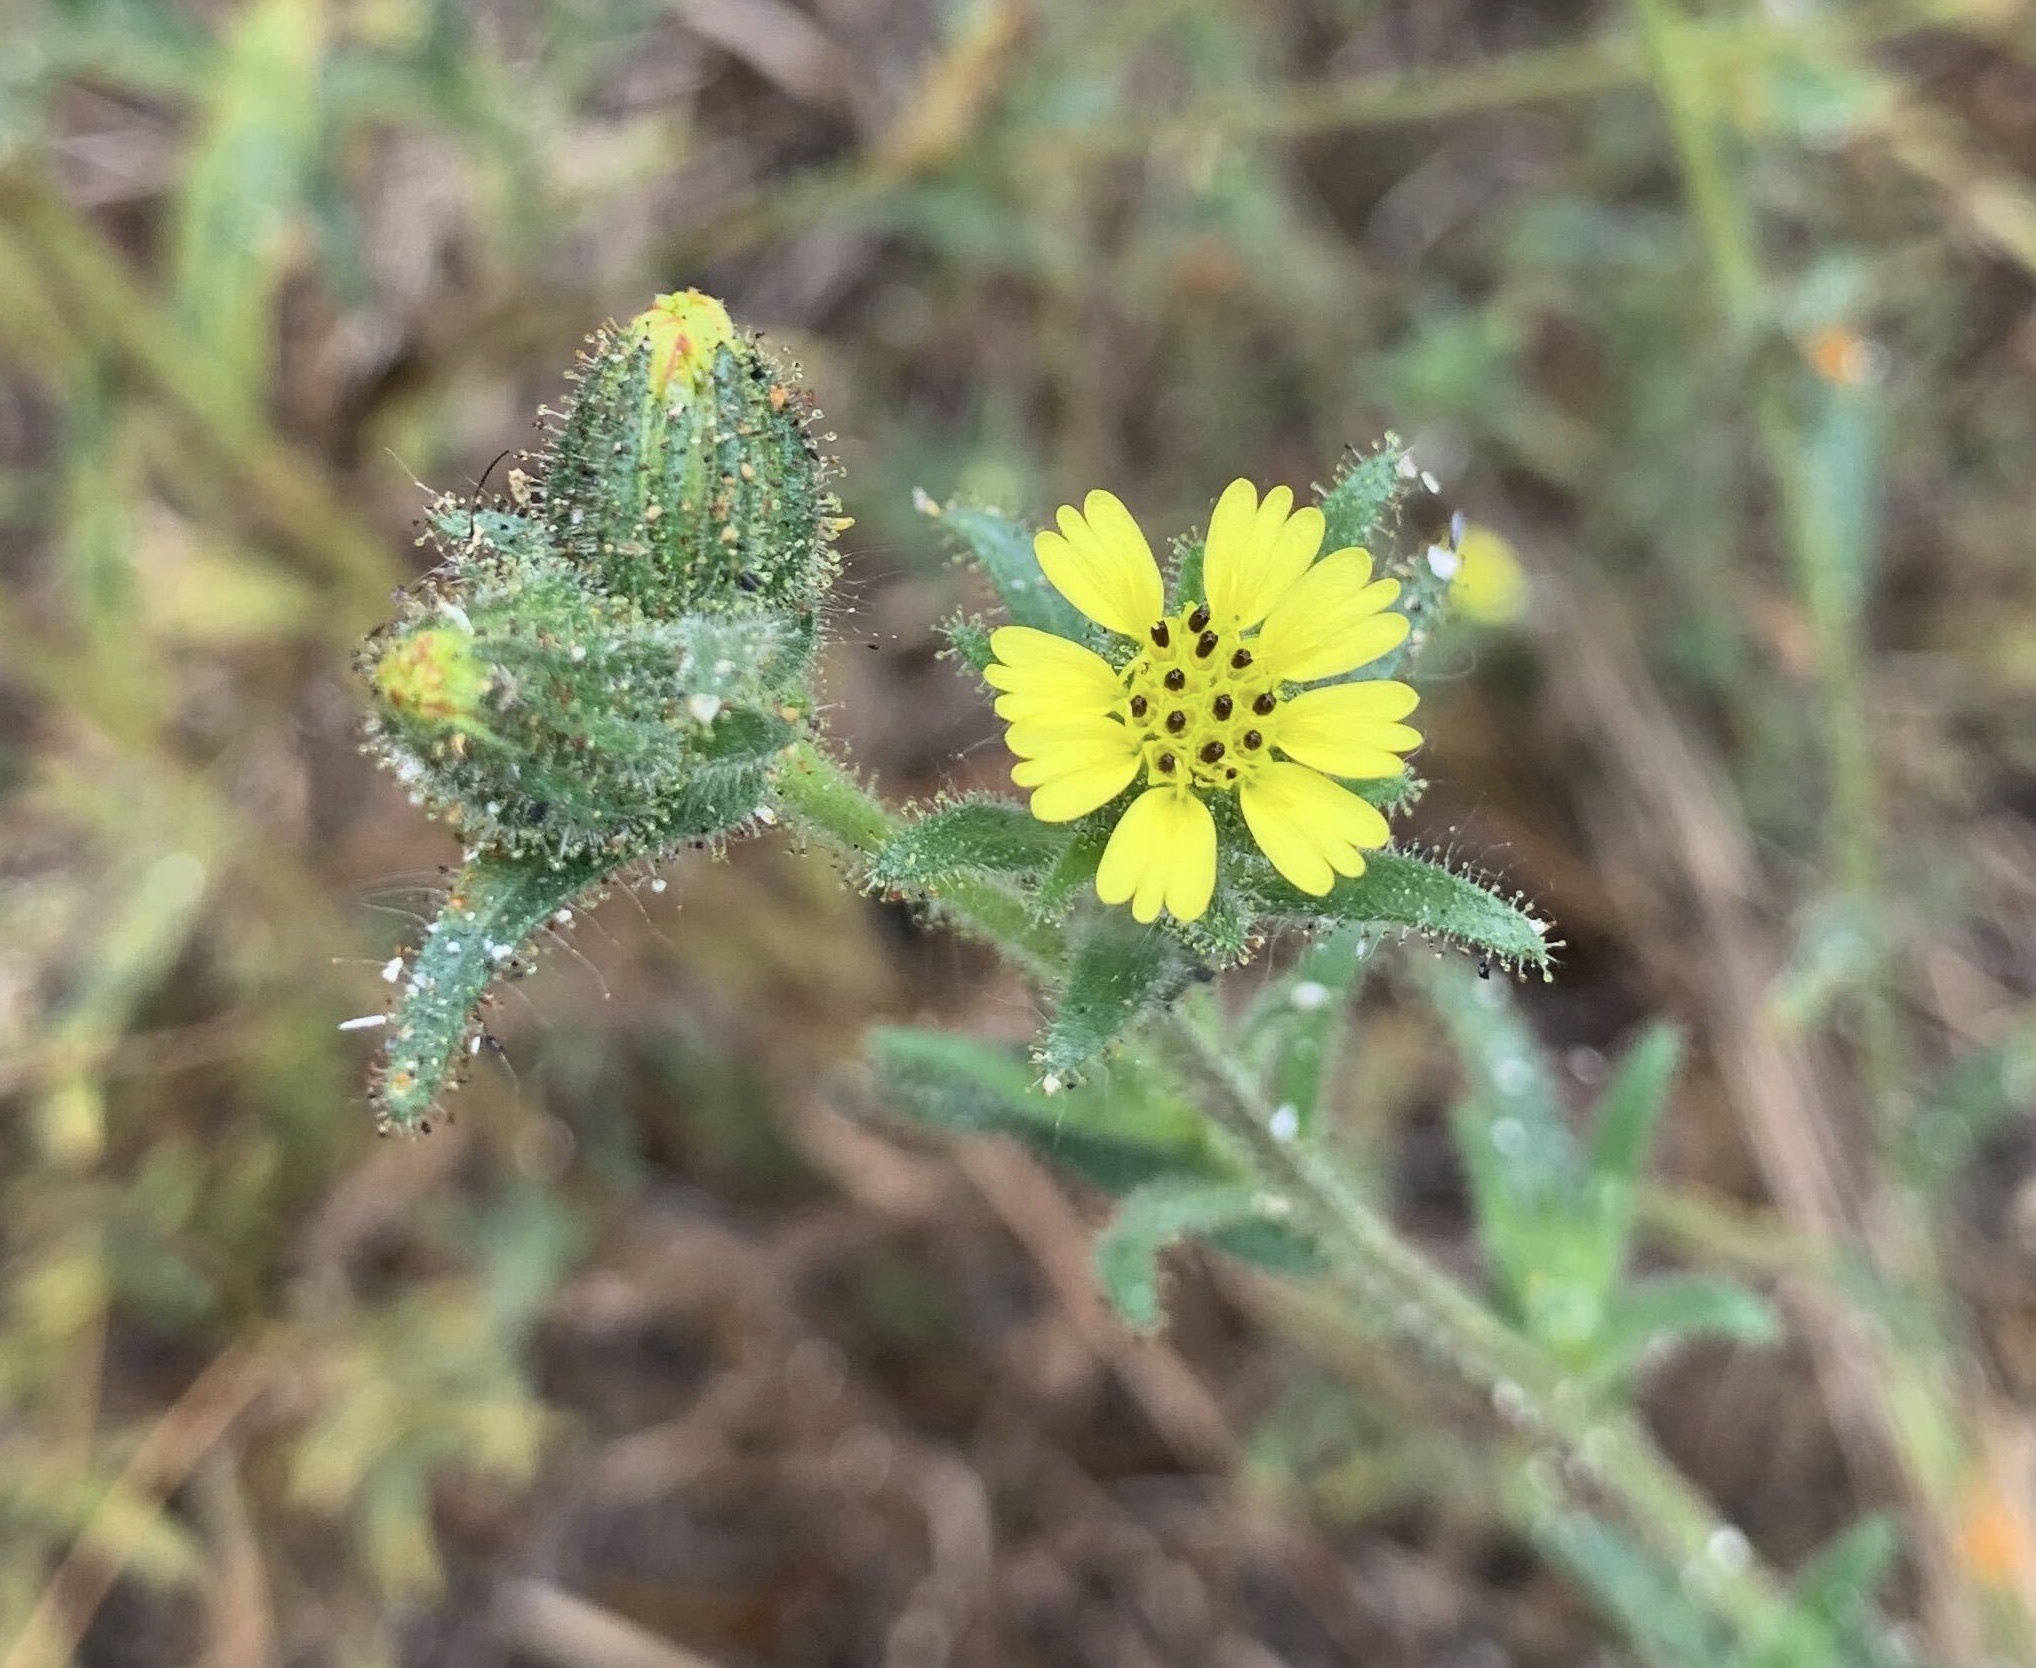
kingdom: Plantae
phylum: Tracheophyta
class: Magnoliopsida
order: Asterales
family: Asteraceae
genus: Madia
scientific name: Madia sativa
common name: Coast tarweed
